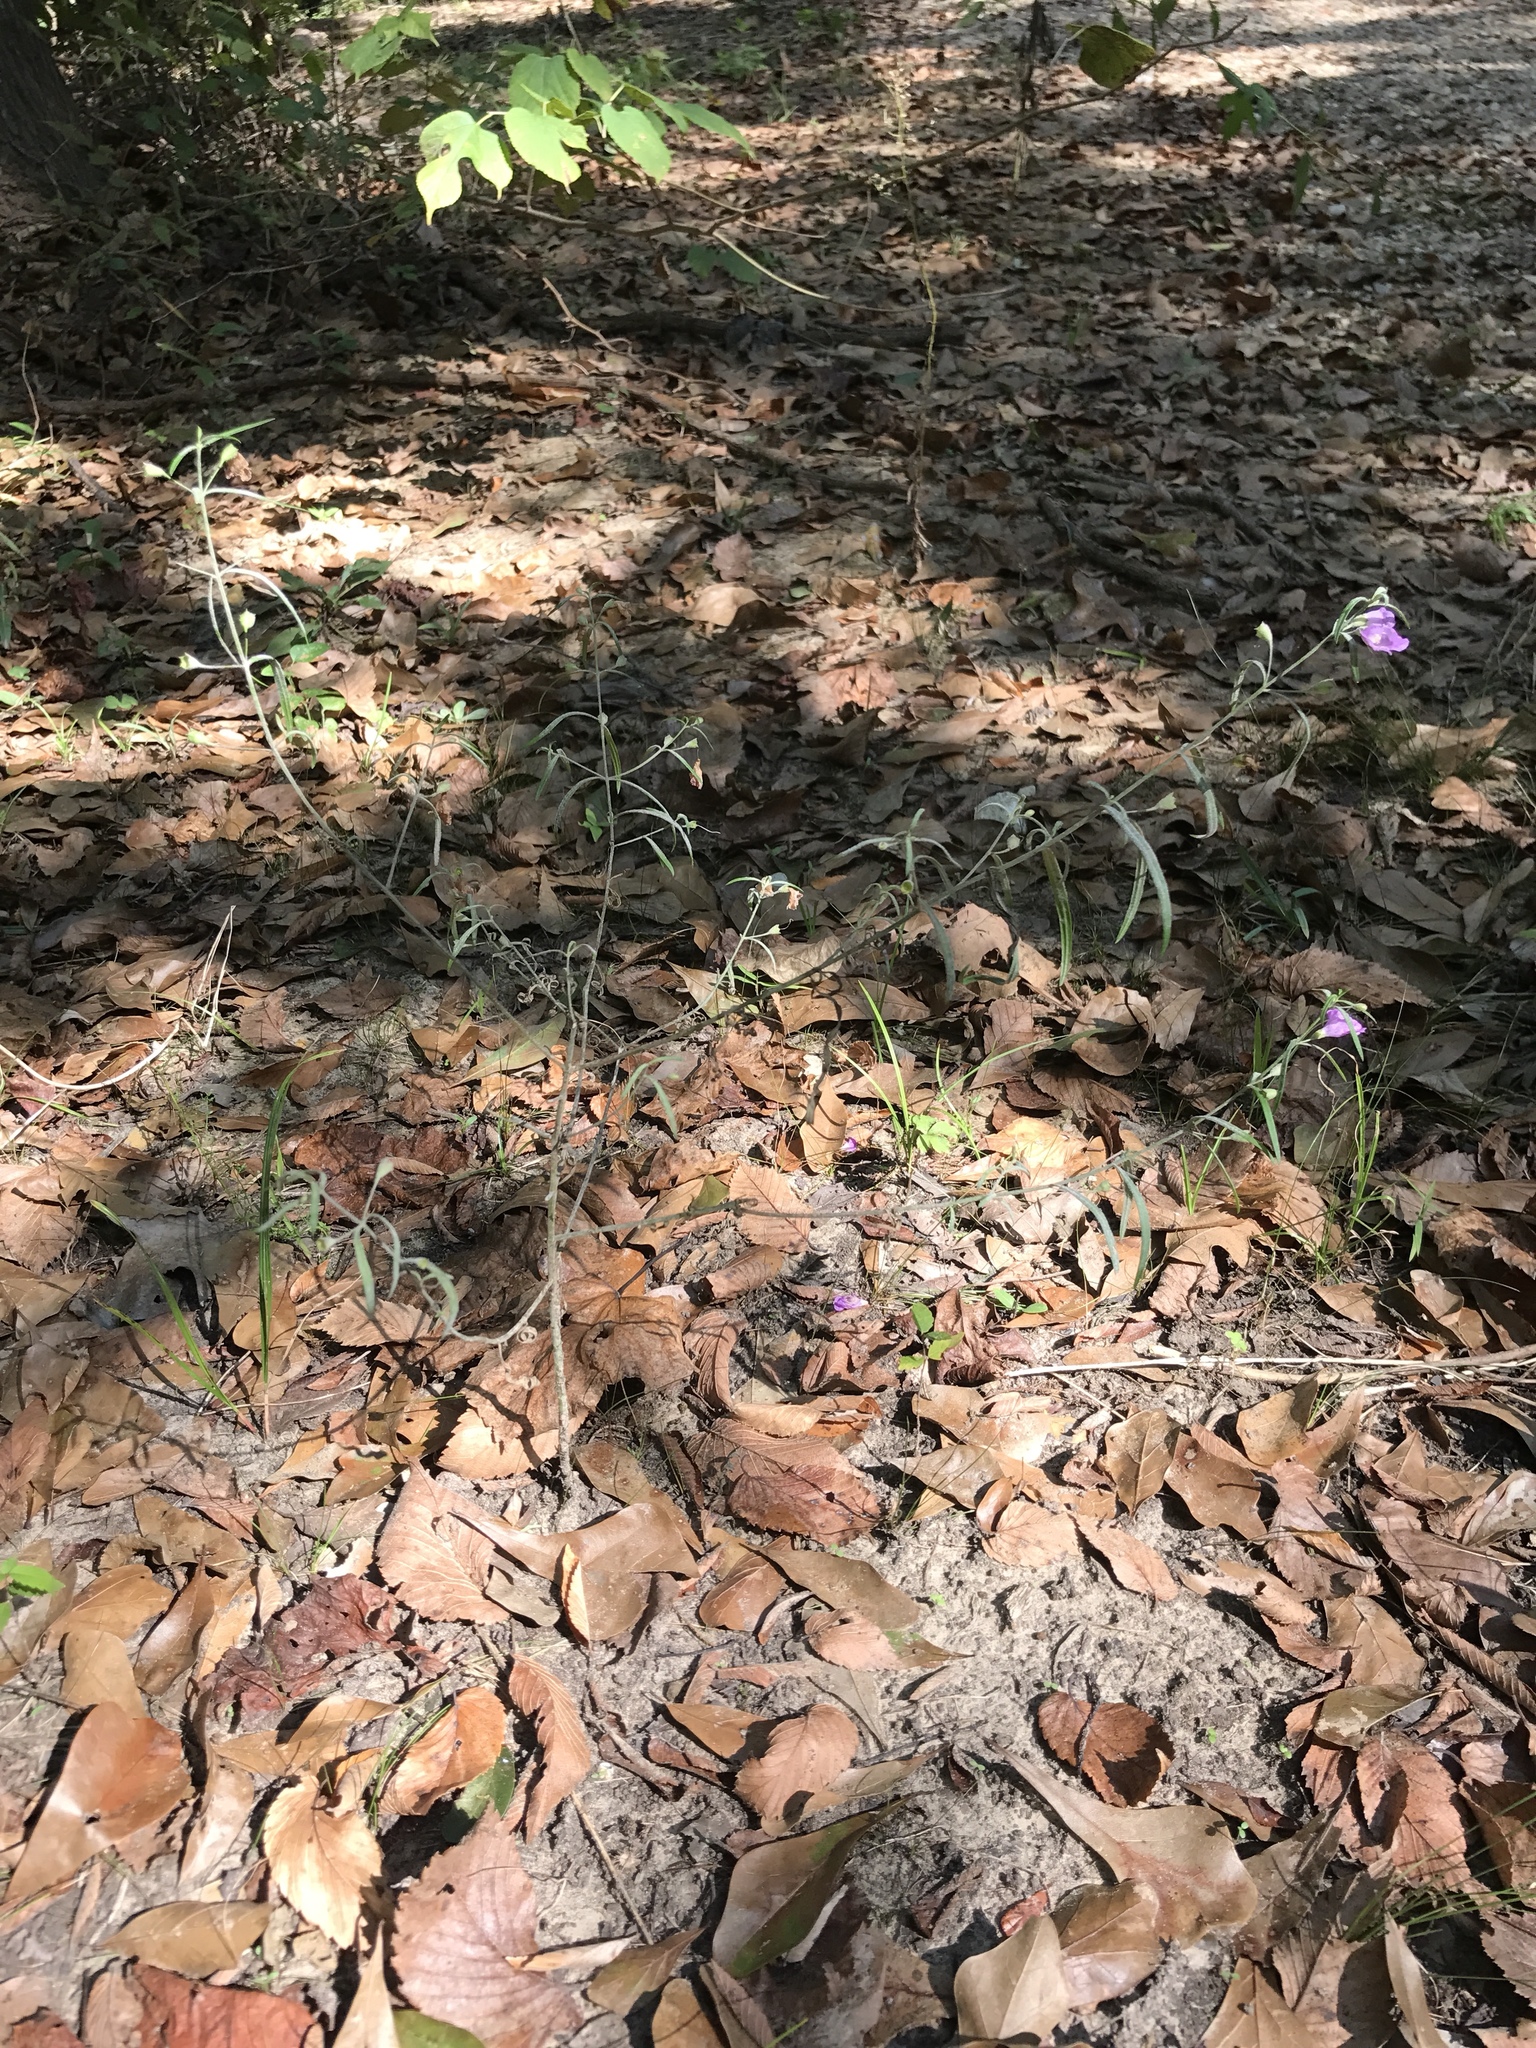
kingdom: Plantae
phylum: Tracheophyta
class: Magnoliopsida
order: Lamiales
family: Orobanchaceae
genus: Agalinis
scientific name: Agalinis tenuifolia
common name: Slender agalinis
